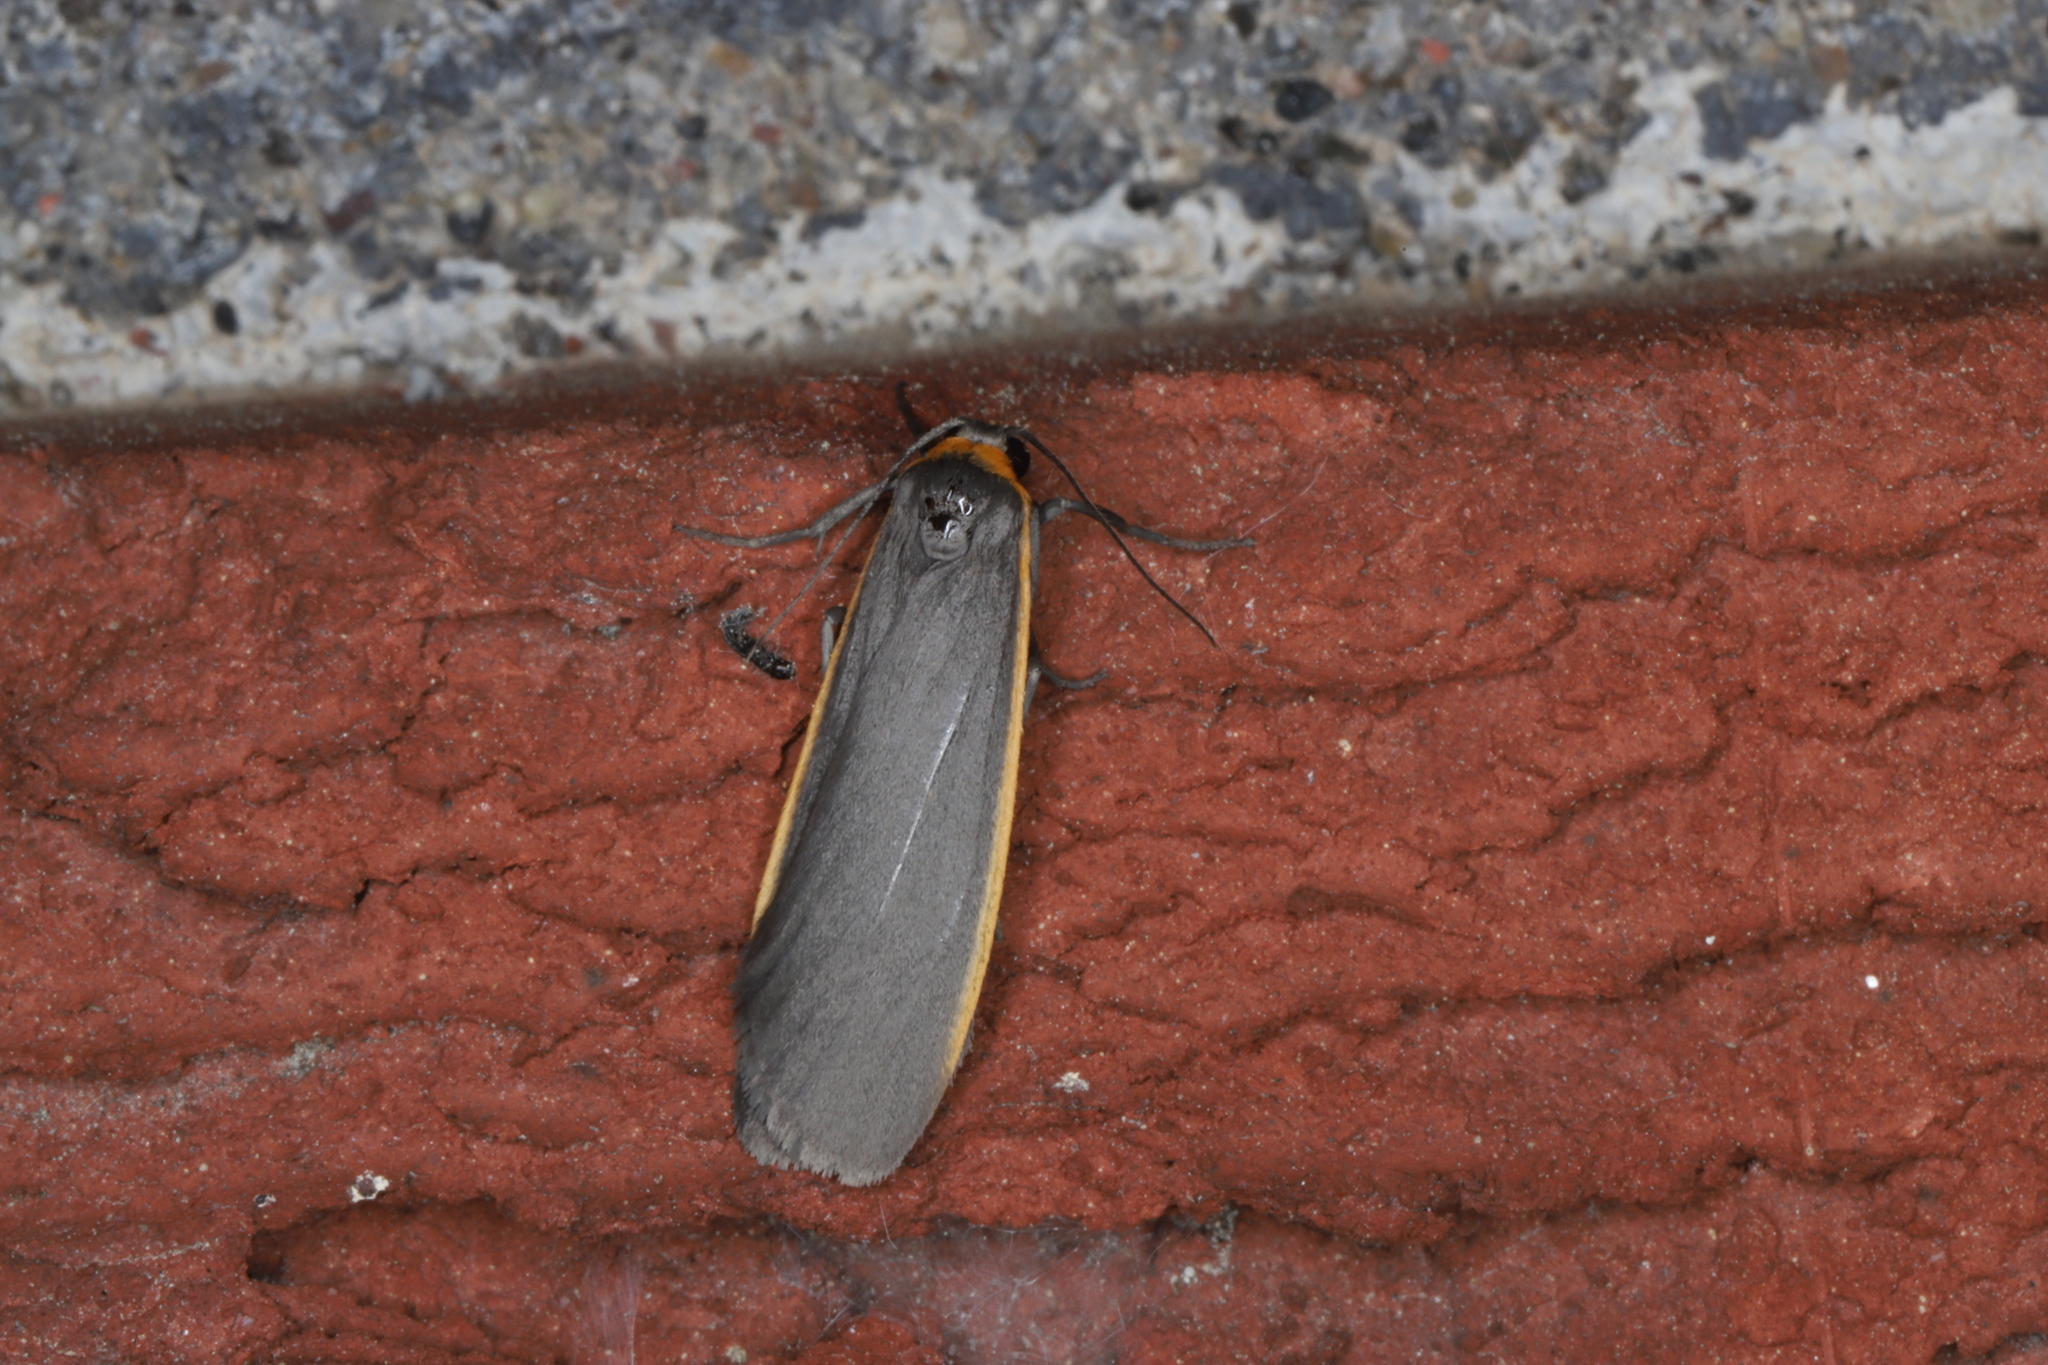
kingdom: Animalia
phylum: Arthropoda
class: Insecta
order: Lepidoptera
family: Erebidae
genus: Manulea
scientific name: Manulea bicolor
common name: Bicolored moth
